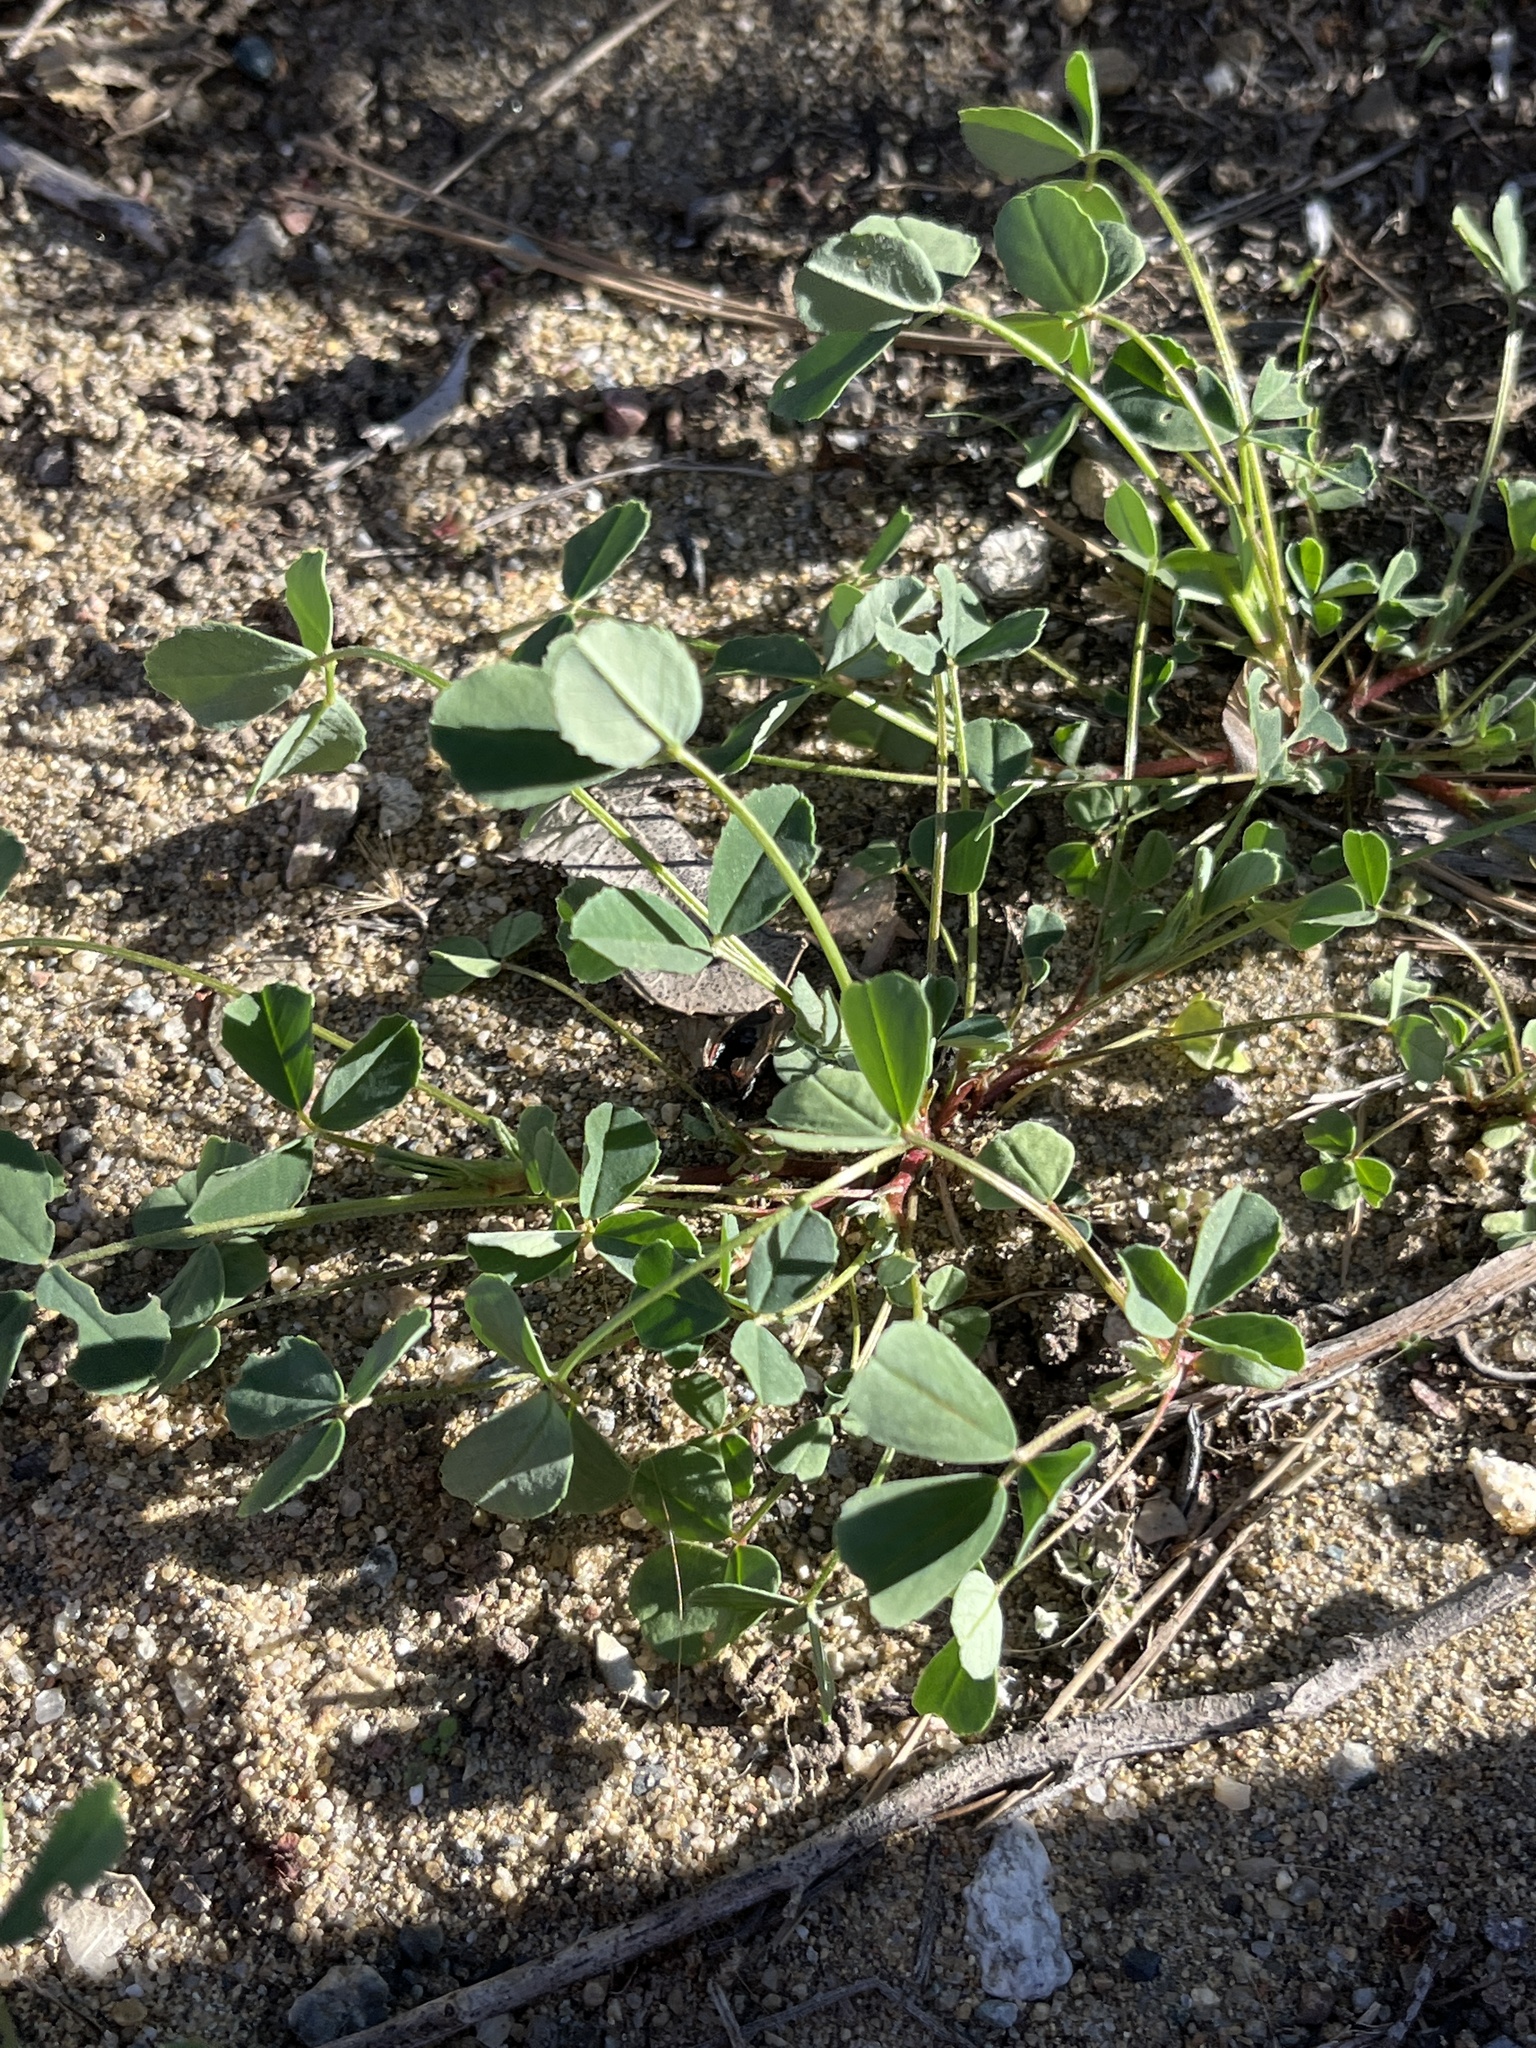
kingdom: Plantae
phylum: Tracheophyta
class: Magnoliopsida
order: Fabales
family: Fabaceae
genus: Melilotus
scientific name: Melilotus indicus
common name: Small melilot
